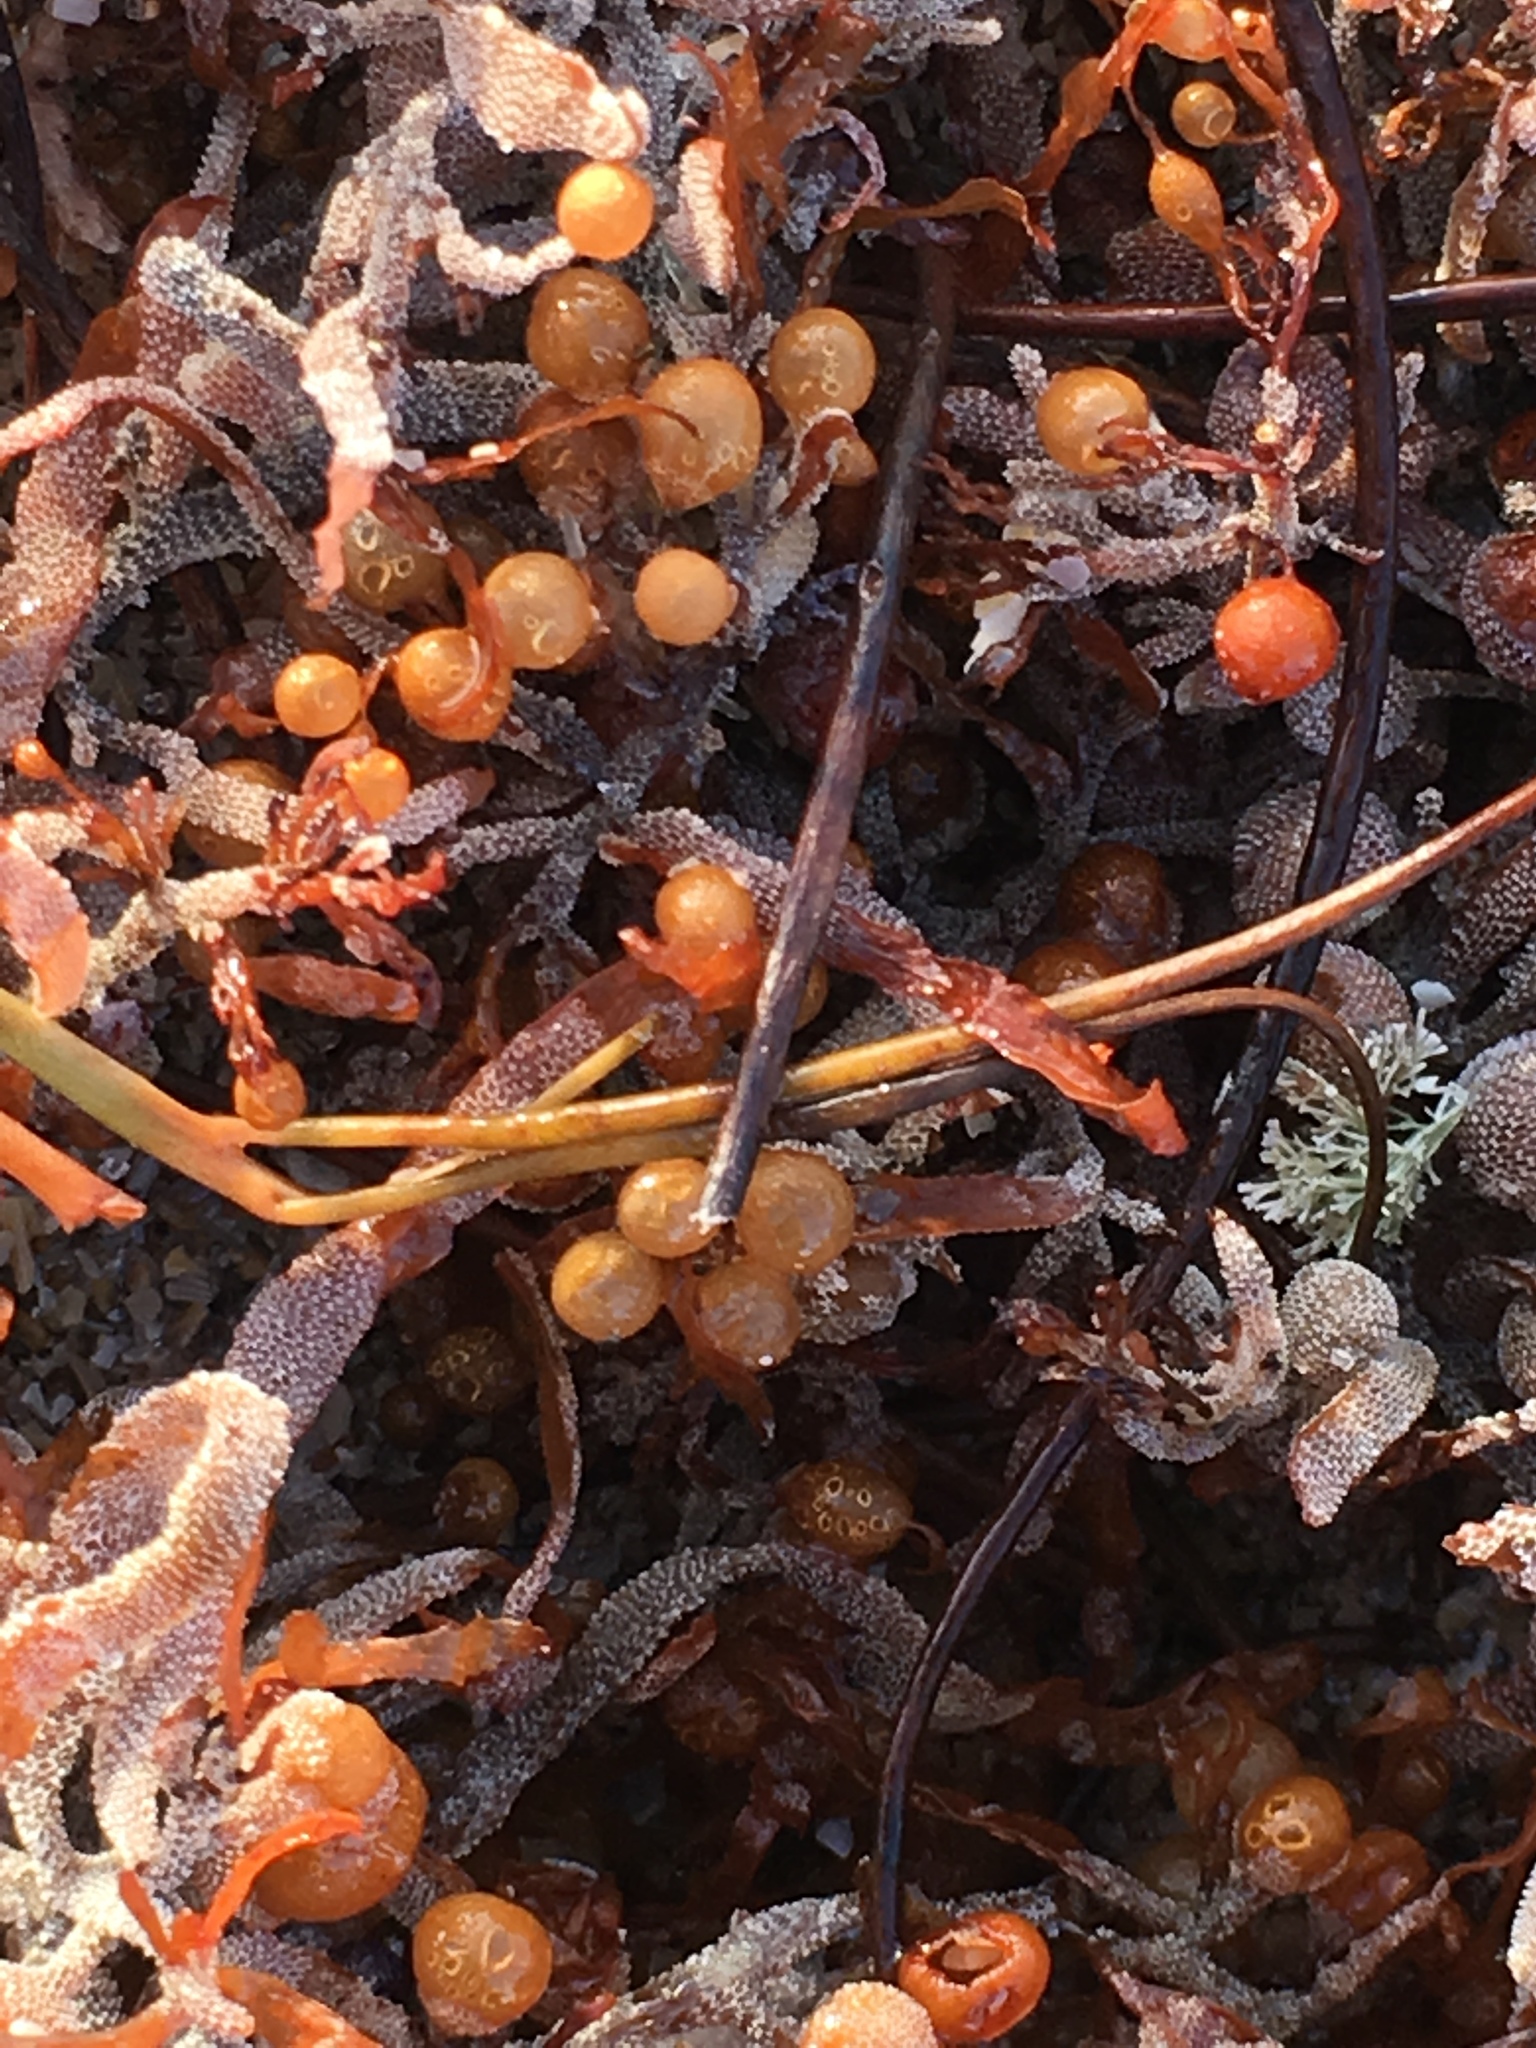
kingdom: Chromista
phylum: Ochrophyta
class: Phaeophyceae
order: Fucales
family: Sargassaceae
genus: Sargassum
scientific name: Sargassum fluitans
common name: Sargassum seaweed
